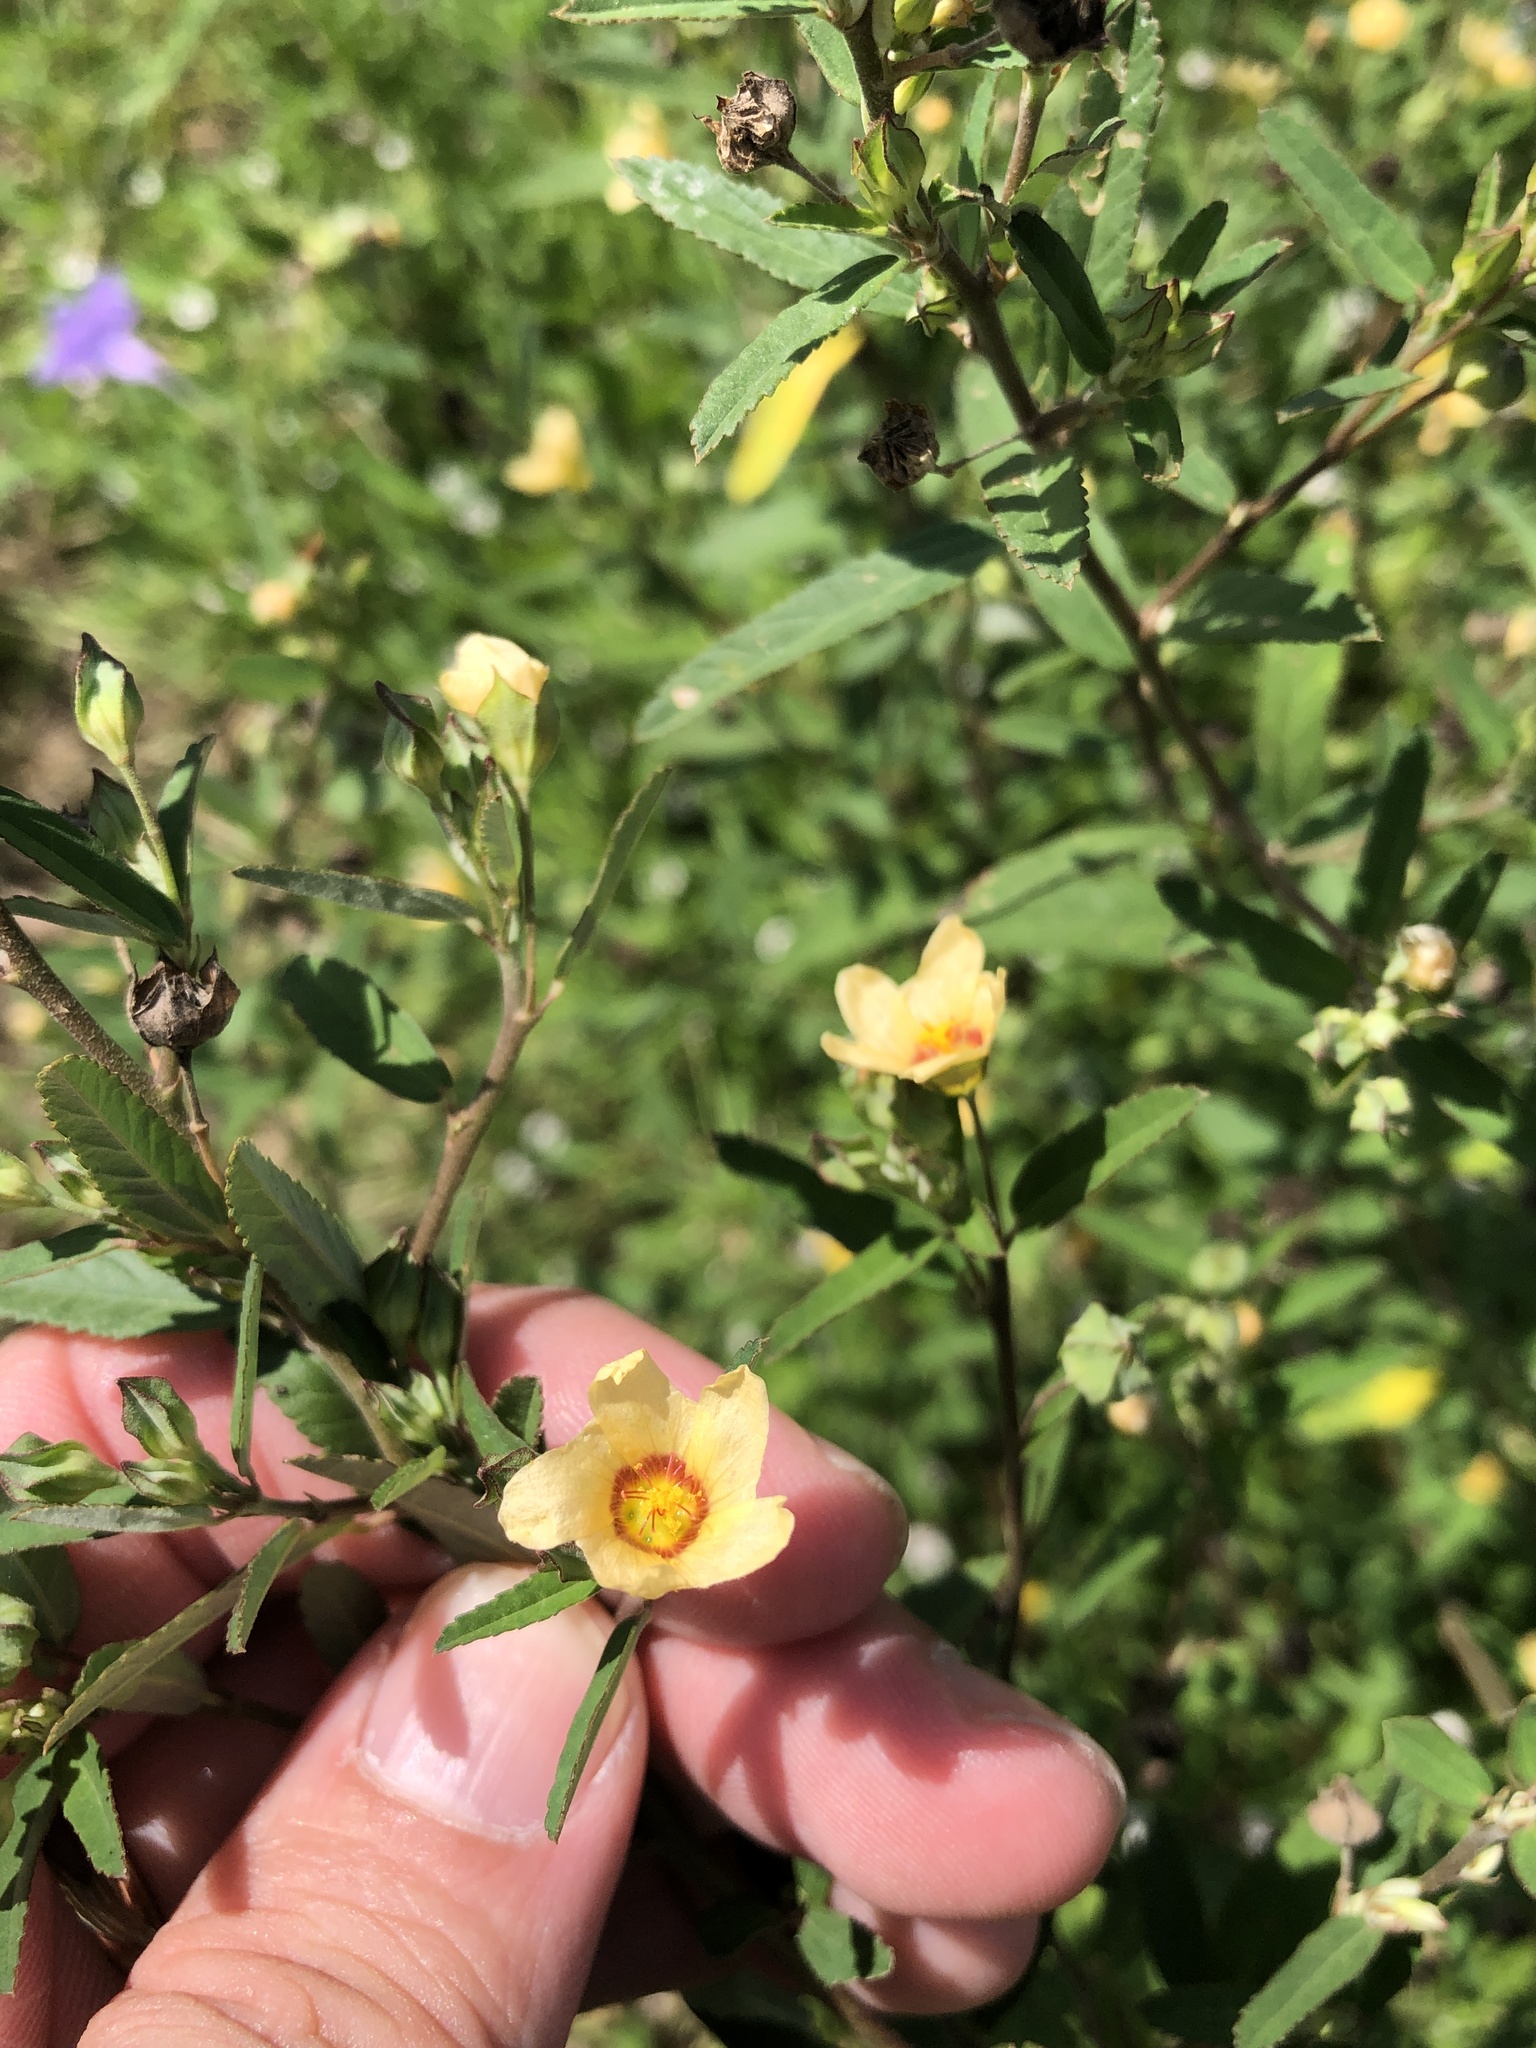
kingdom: Plantae
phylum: Tracheophyta
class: Magnoliopsida
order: Malvales
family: Malvaceae
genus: Sida
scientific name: Sida rhombifolia
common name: Queensland-hemp
